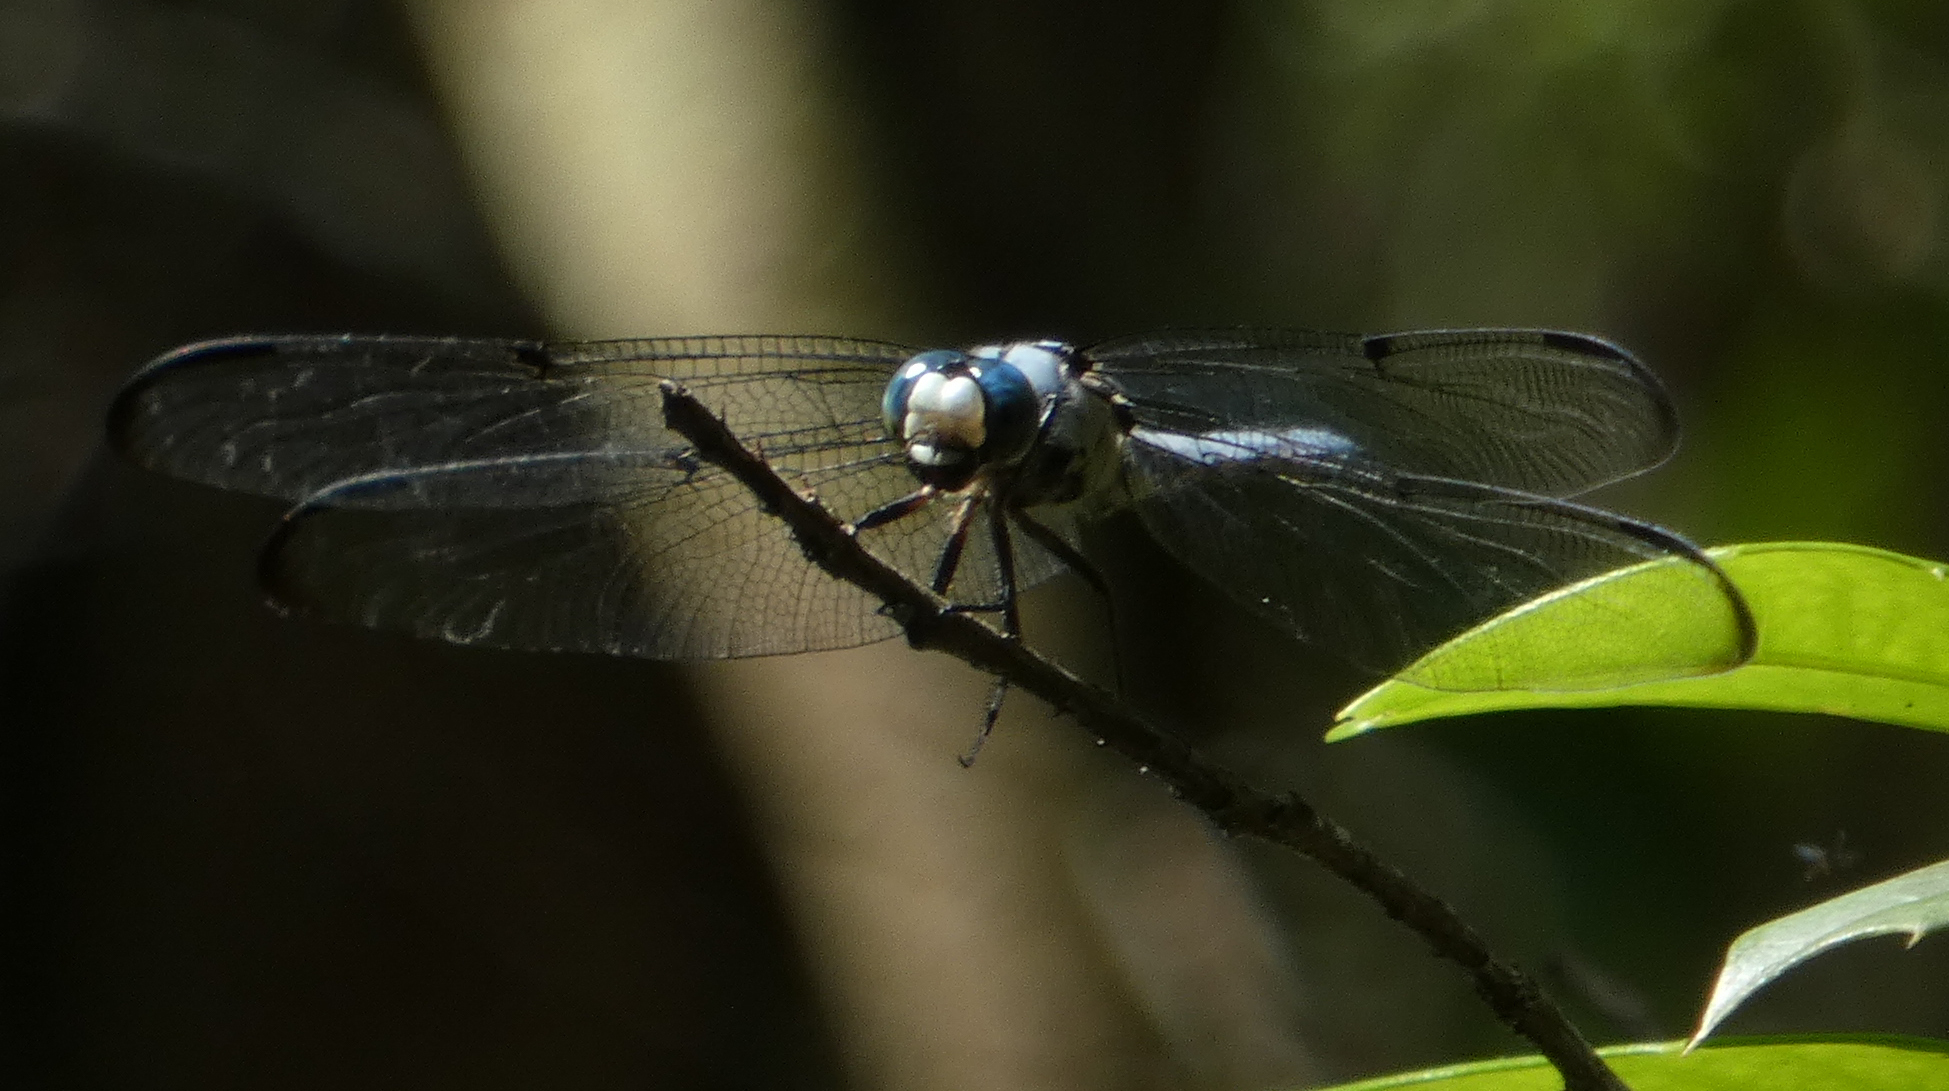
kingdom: Animalia
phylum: Arthropoda
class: Insecta
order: Odonata
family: Libellulidae
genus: Libellula
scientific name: Libellula vibrans
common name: Great blue skimmer
